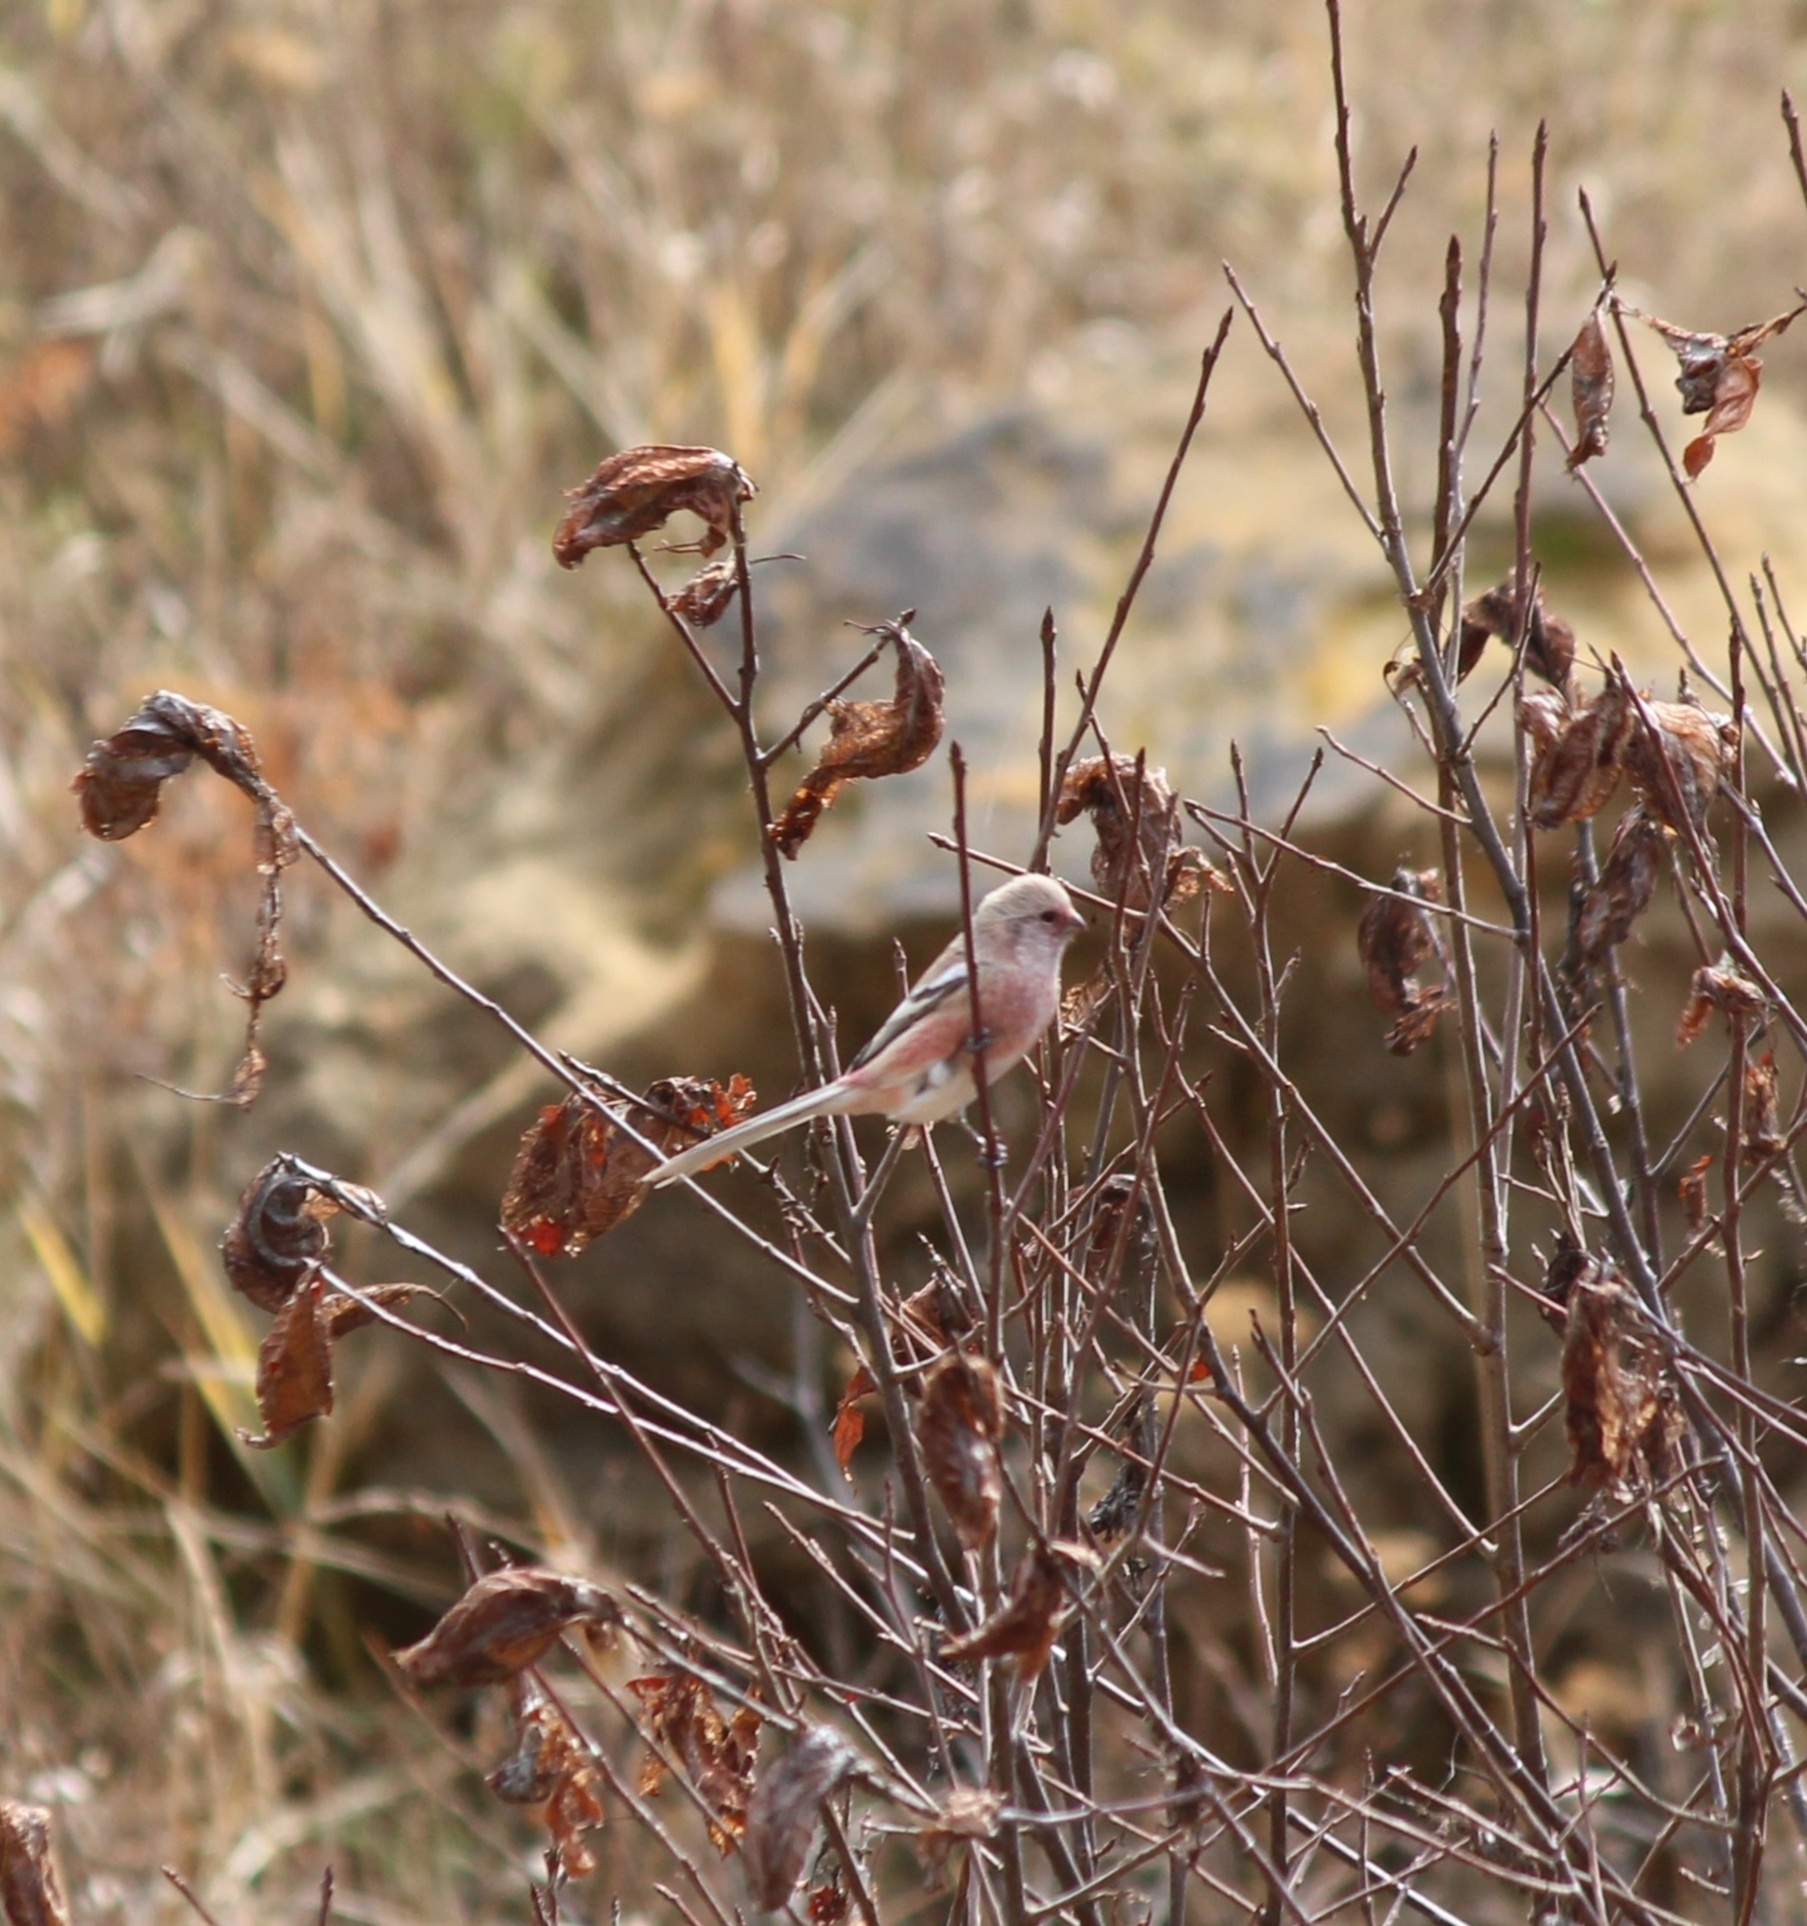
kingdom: Animalia
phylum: Chordata
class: Aves
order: Passeriformes
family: Fringillidae
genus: Carpodacus
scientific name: Carpodacus sibiricus
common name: Long-tailed rosefinch
